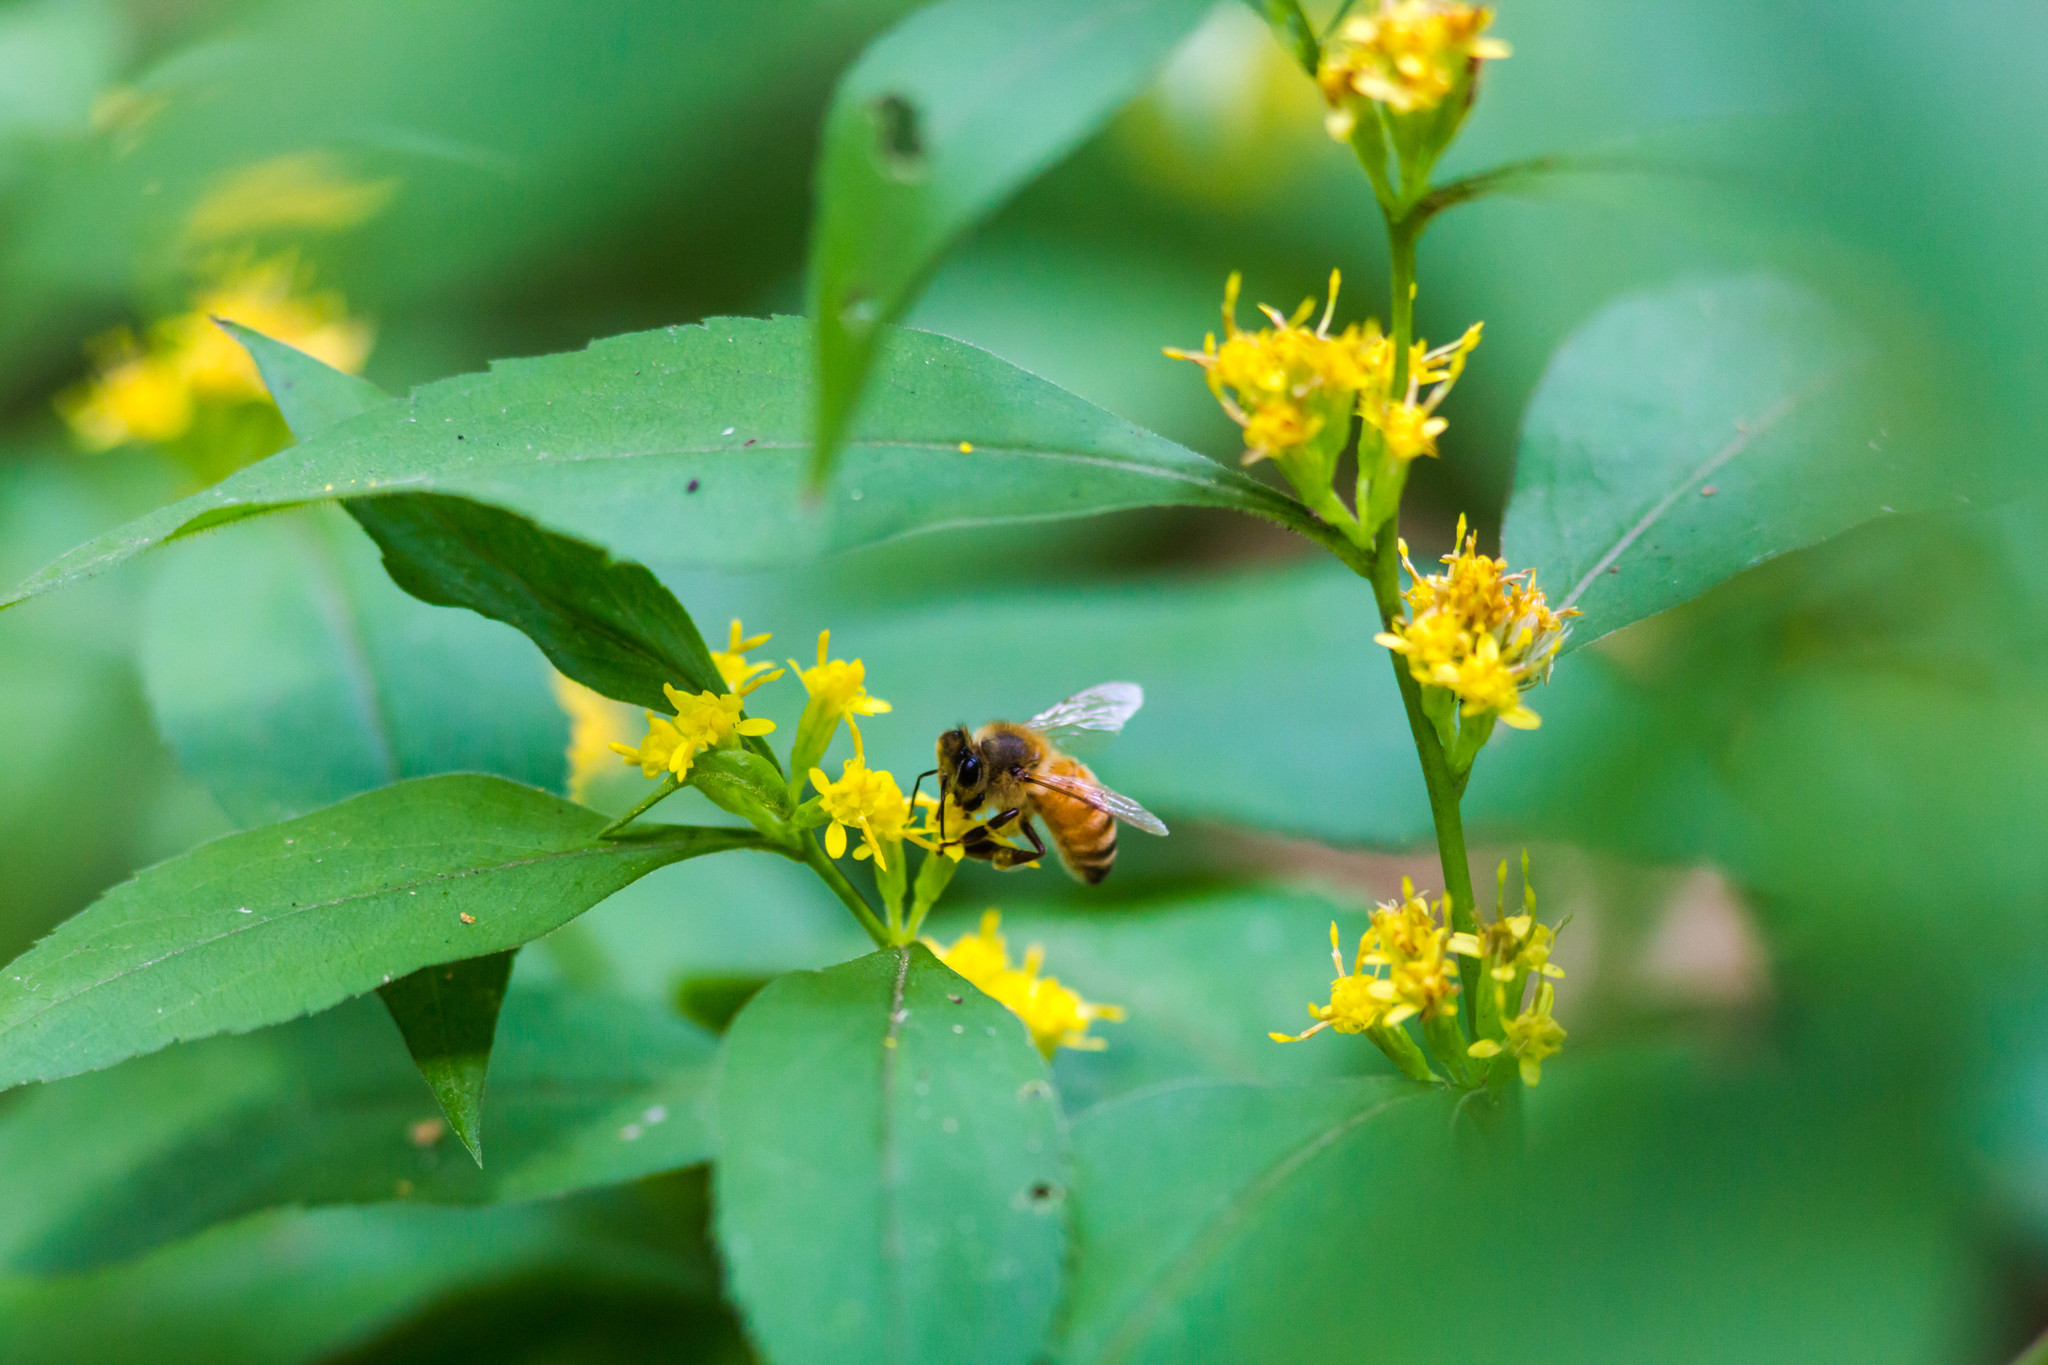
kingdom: Animalia
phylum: Arthropoda
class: Insecta
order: Hymenoptera
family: Apidae
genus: Apis
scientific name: Apis mellifera
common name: Honey bee
